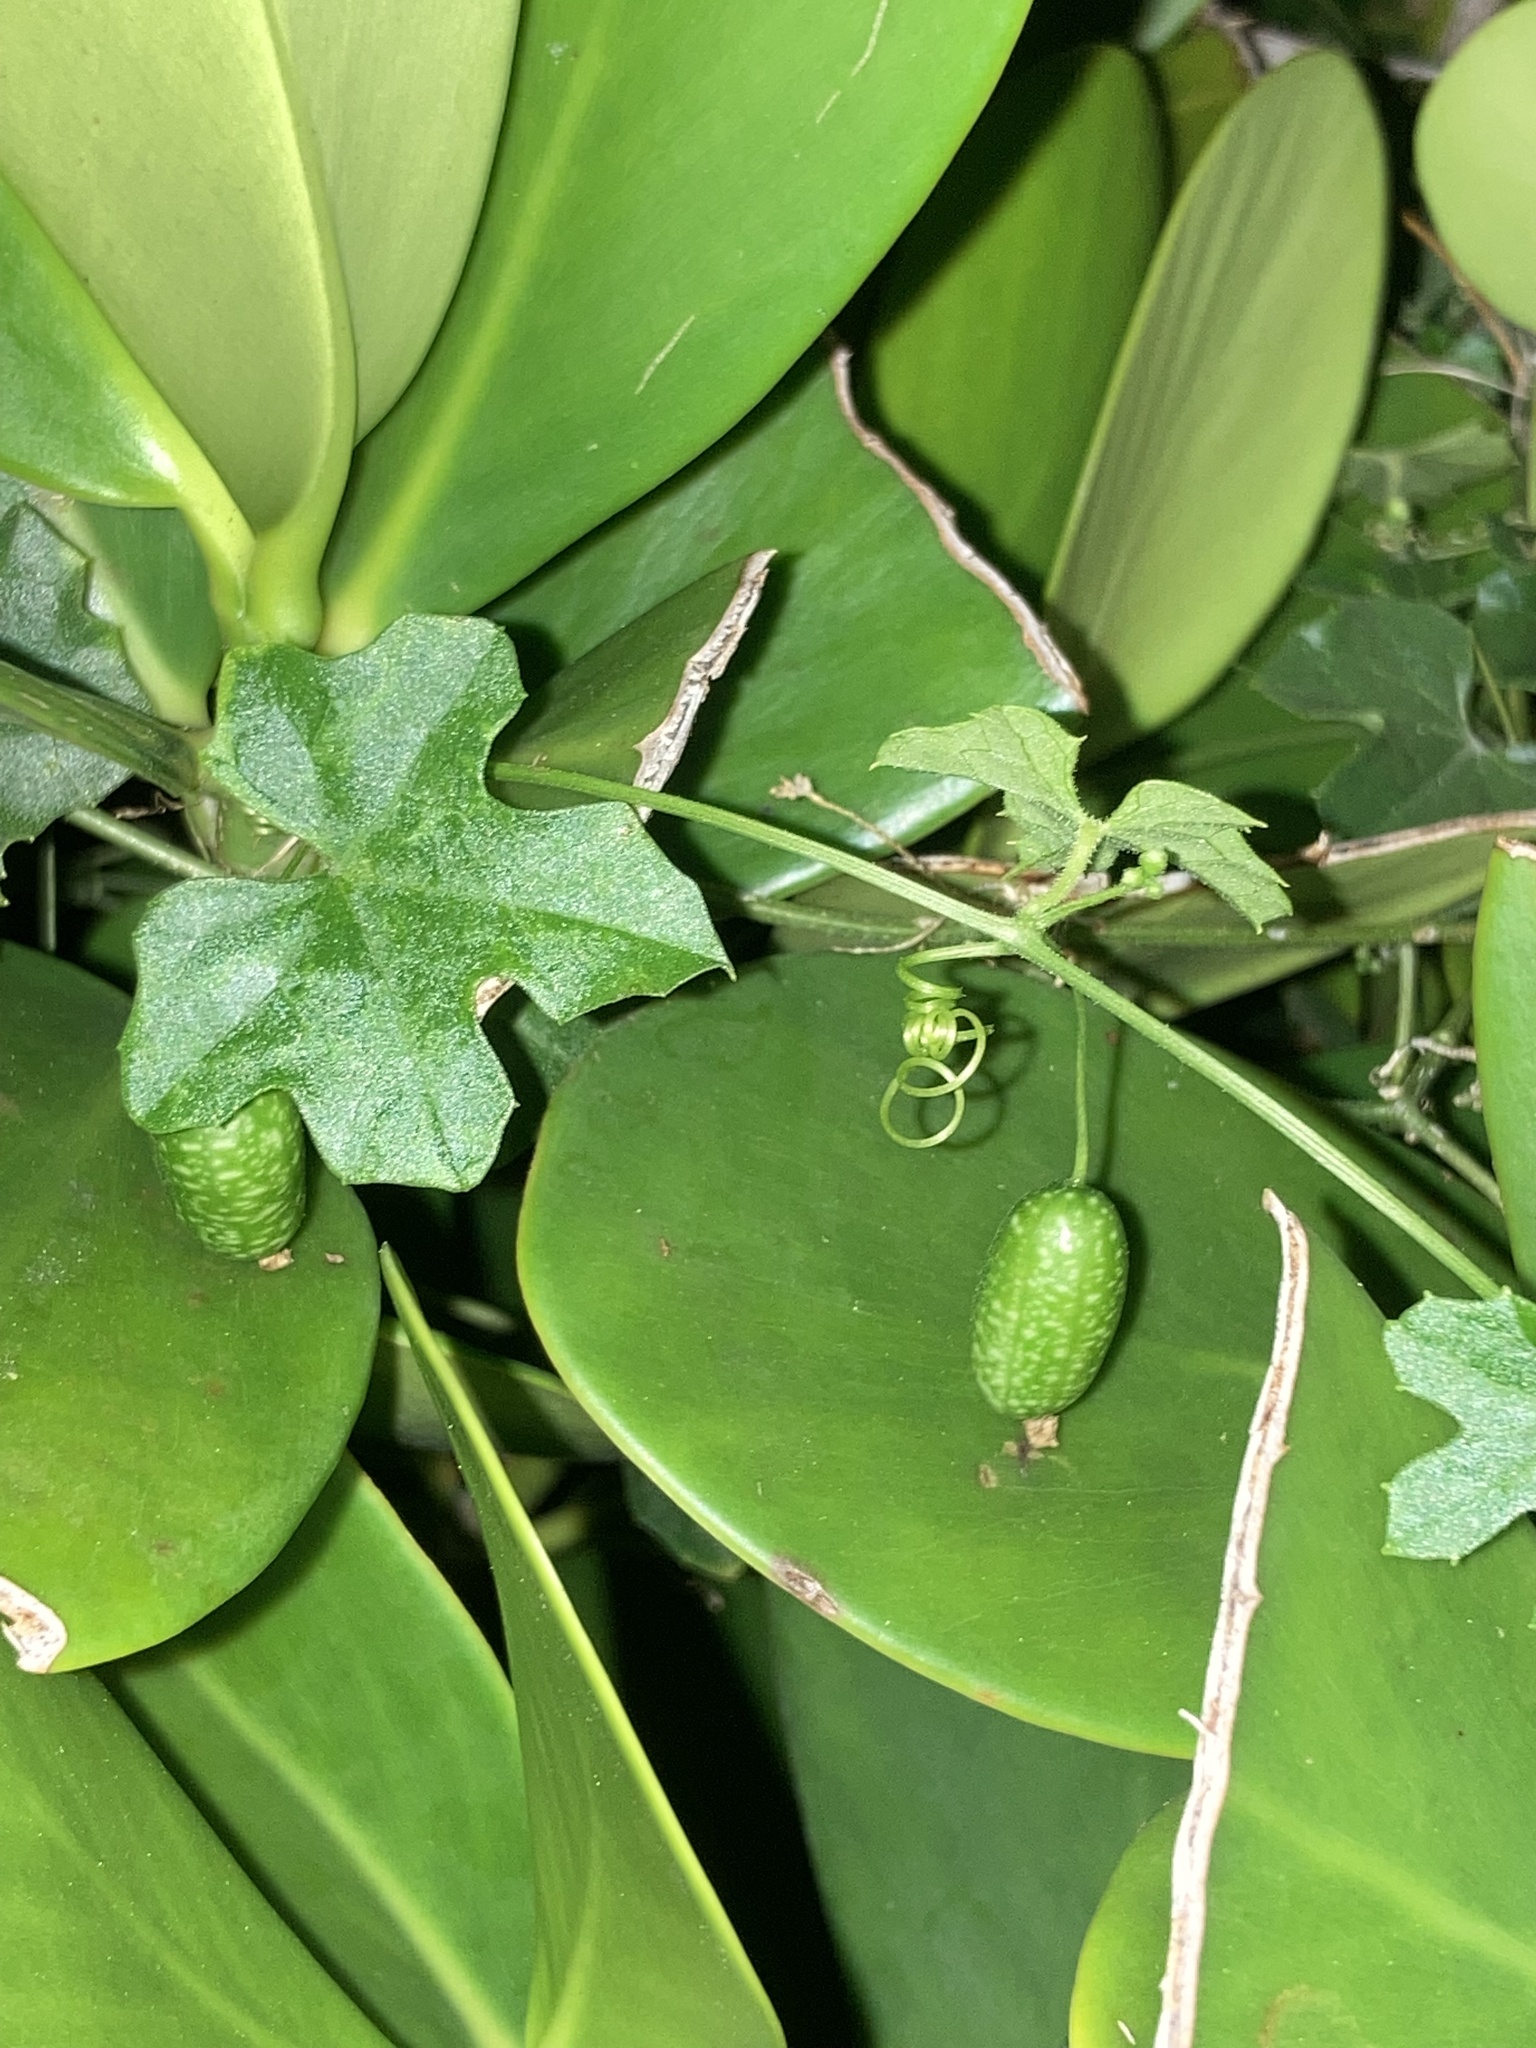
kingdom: Plantae
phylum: Tracheophyta
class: Magnoliopsida
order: Cucurbitales
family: Cucurbitaceae
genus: Melothria
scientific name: Melothria pendula
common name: Creeping-cucumber
